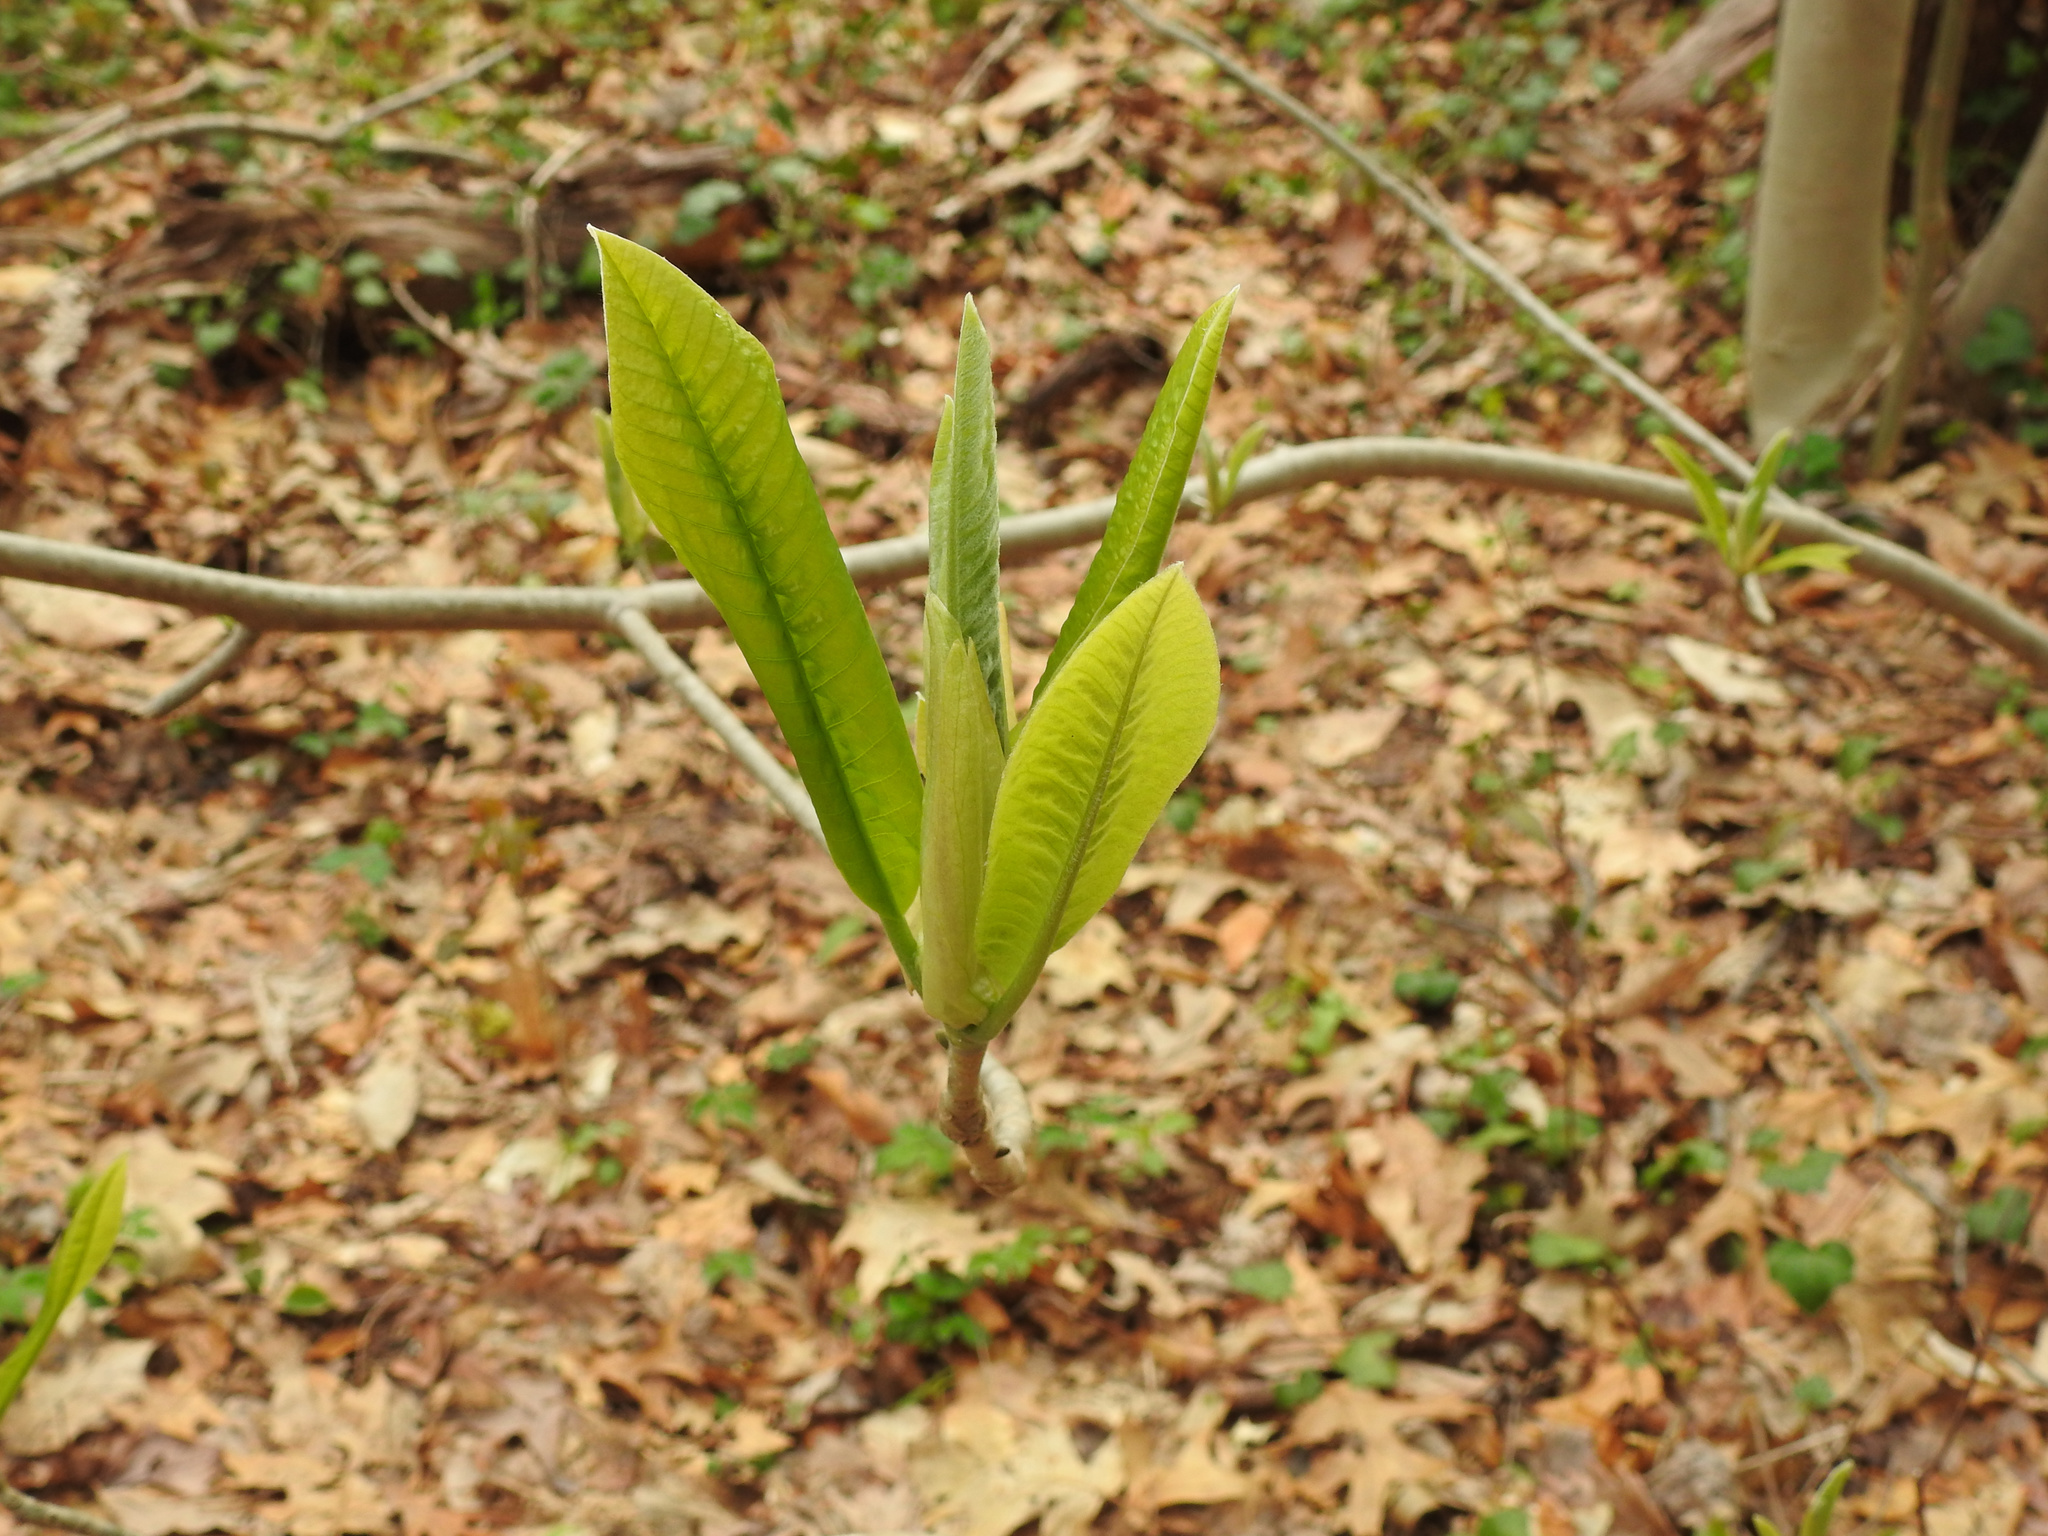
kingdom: Plantae
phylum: Tracheophyta
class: Magnoliopsida
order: Magnoliales
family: Magnoliaceae
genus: Magnolia
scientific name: Magnolia tripetala
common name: Umbrella magnolia
